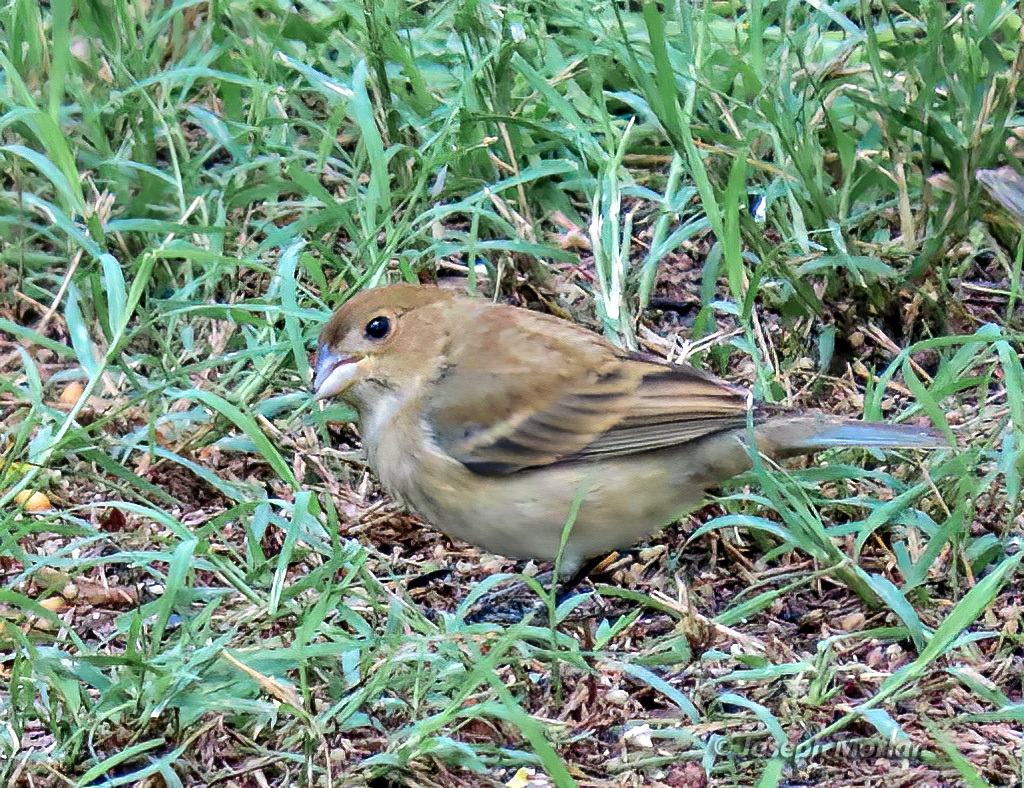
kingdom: Animalia
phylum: Chordata
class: Aves
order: Passeriformes
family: Cardinalidae
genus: Passerina
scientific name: Passerina cyanea
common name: Indigo bunting
